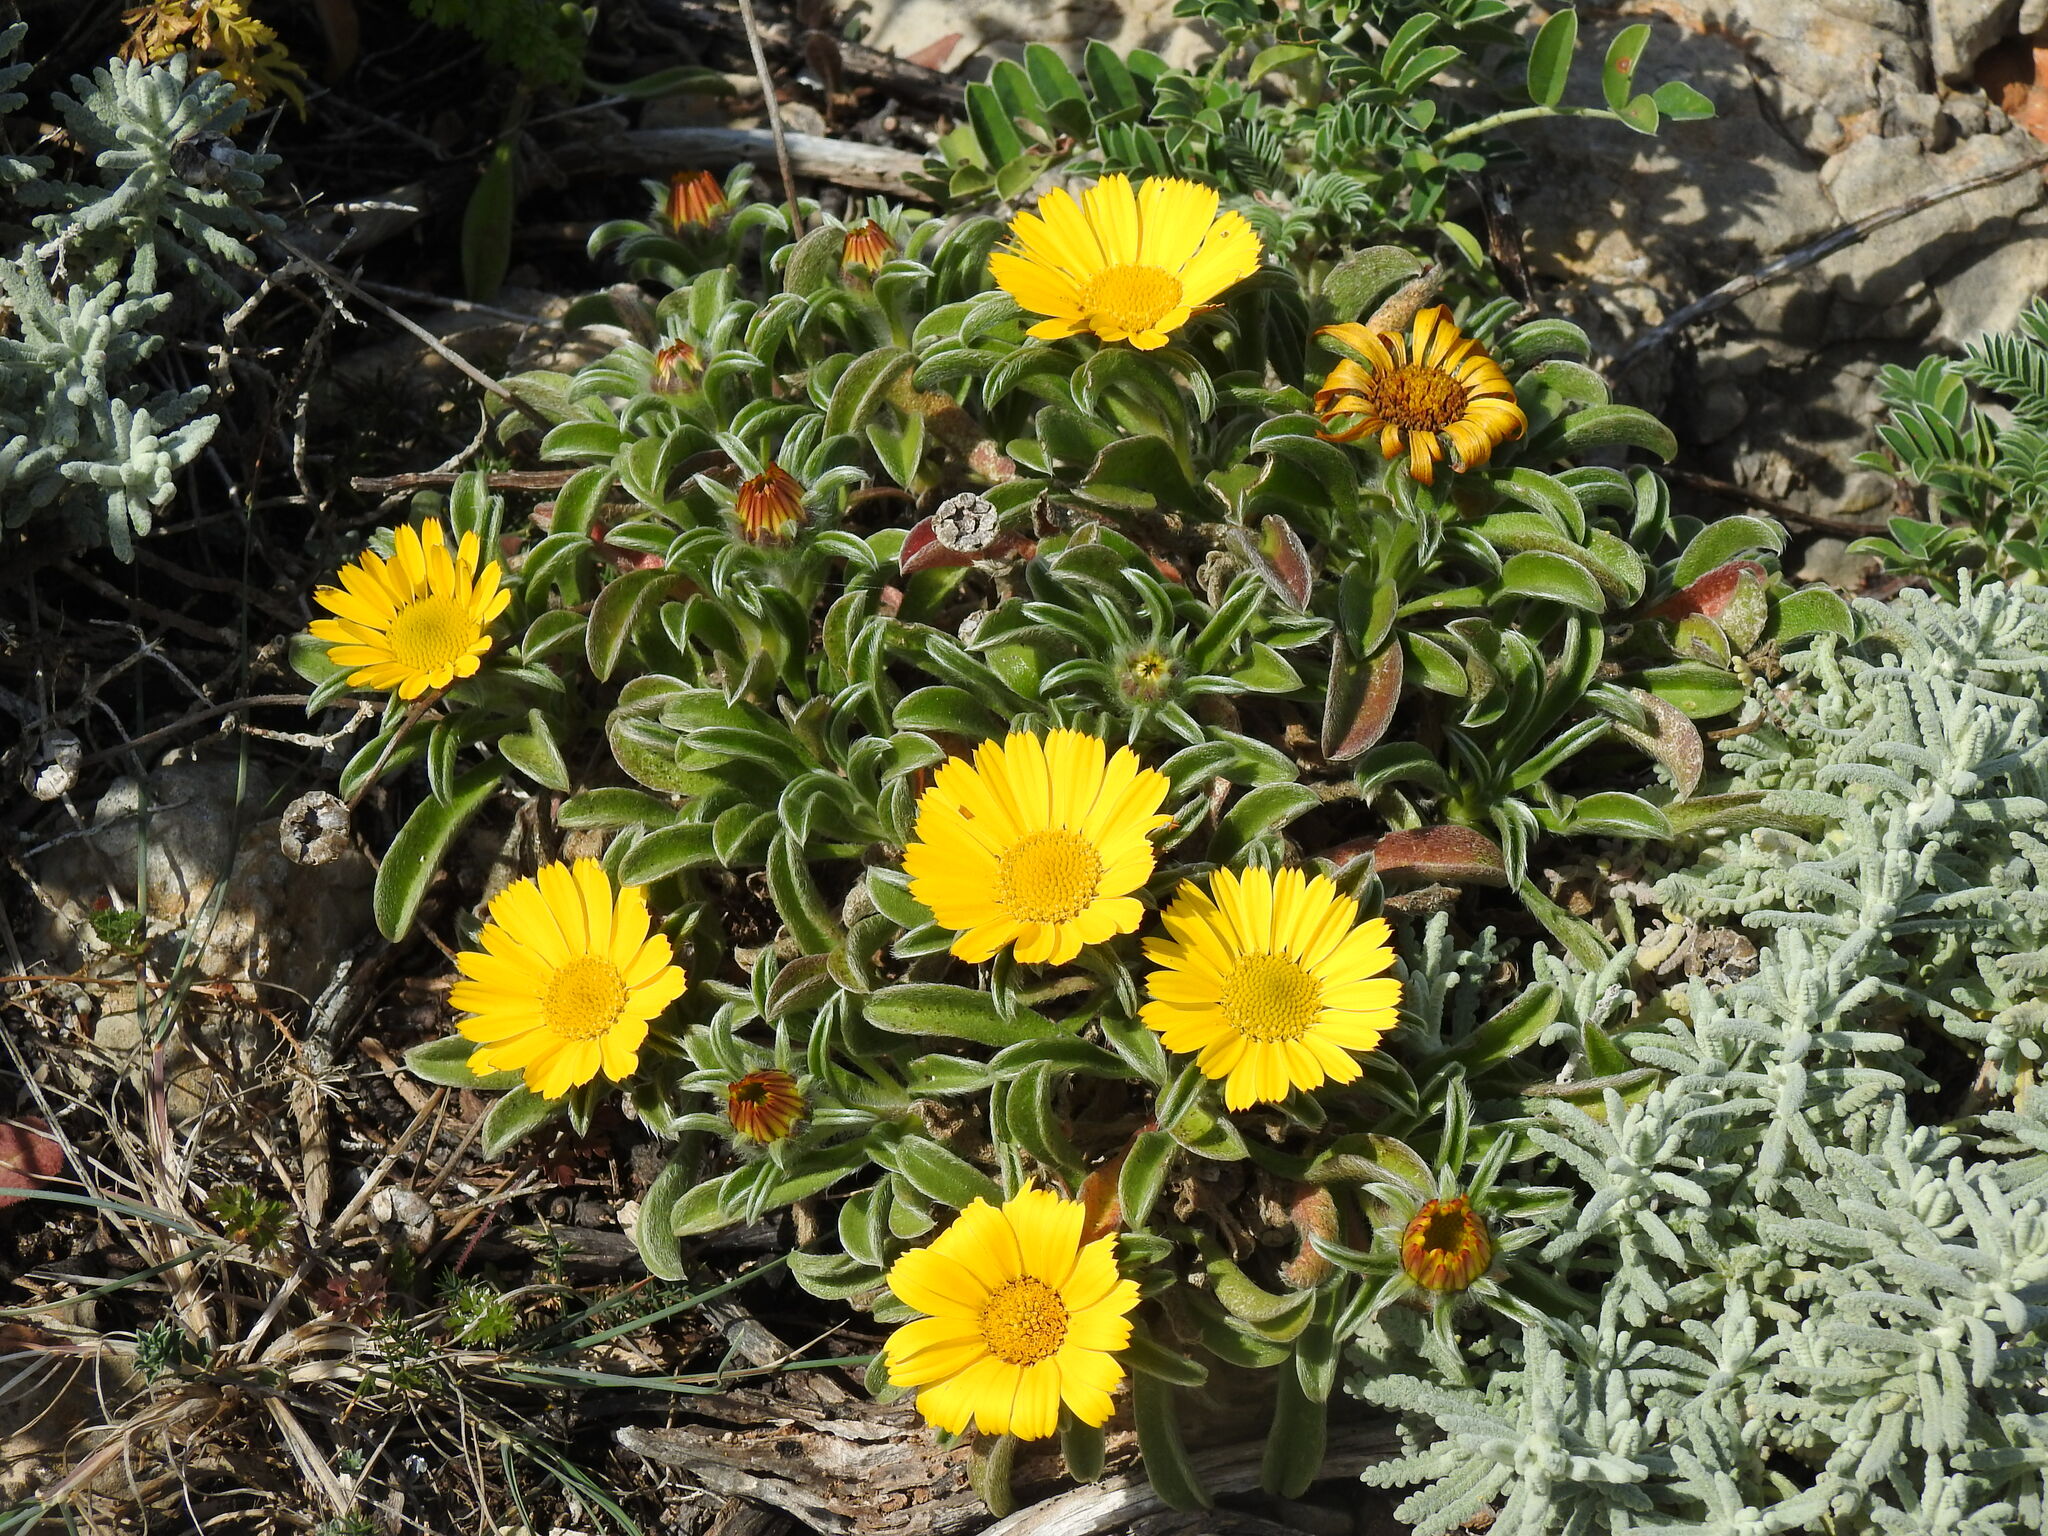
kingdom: Plantae
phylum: Tracheophyta
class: Magnoliopsida
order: Asterales
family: Asteraceae
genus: Pallenis
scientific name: Pallenis maritima
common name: Golden coin daisy
